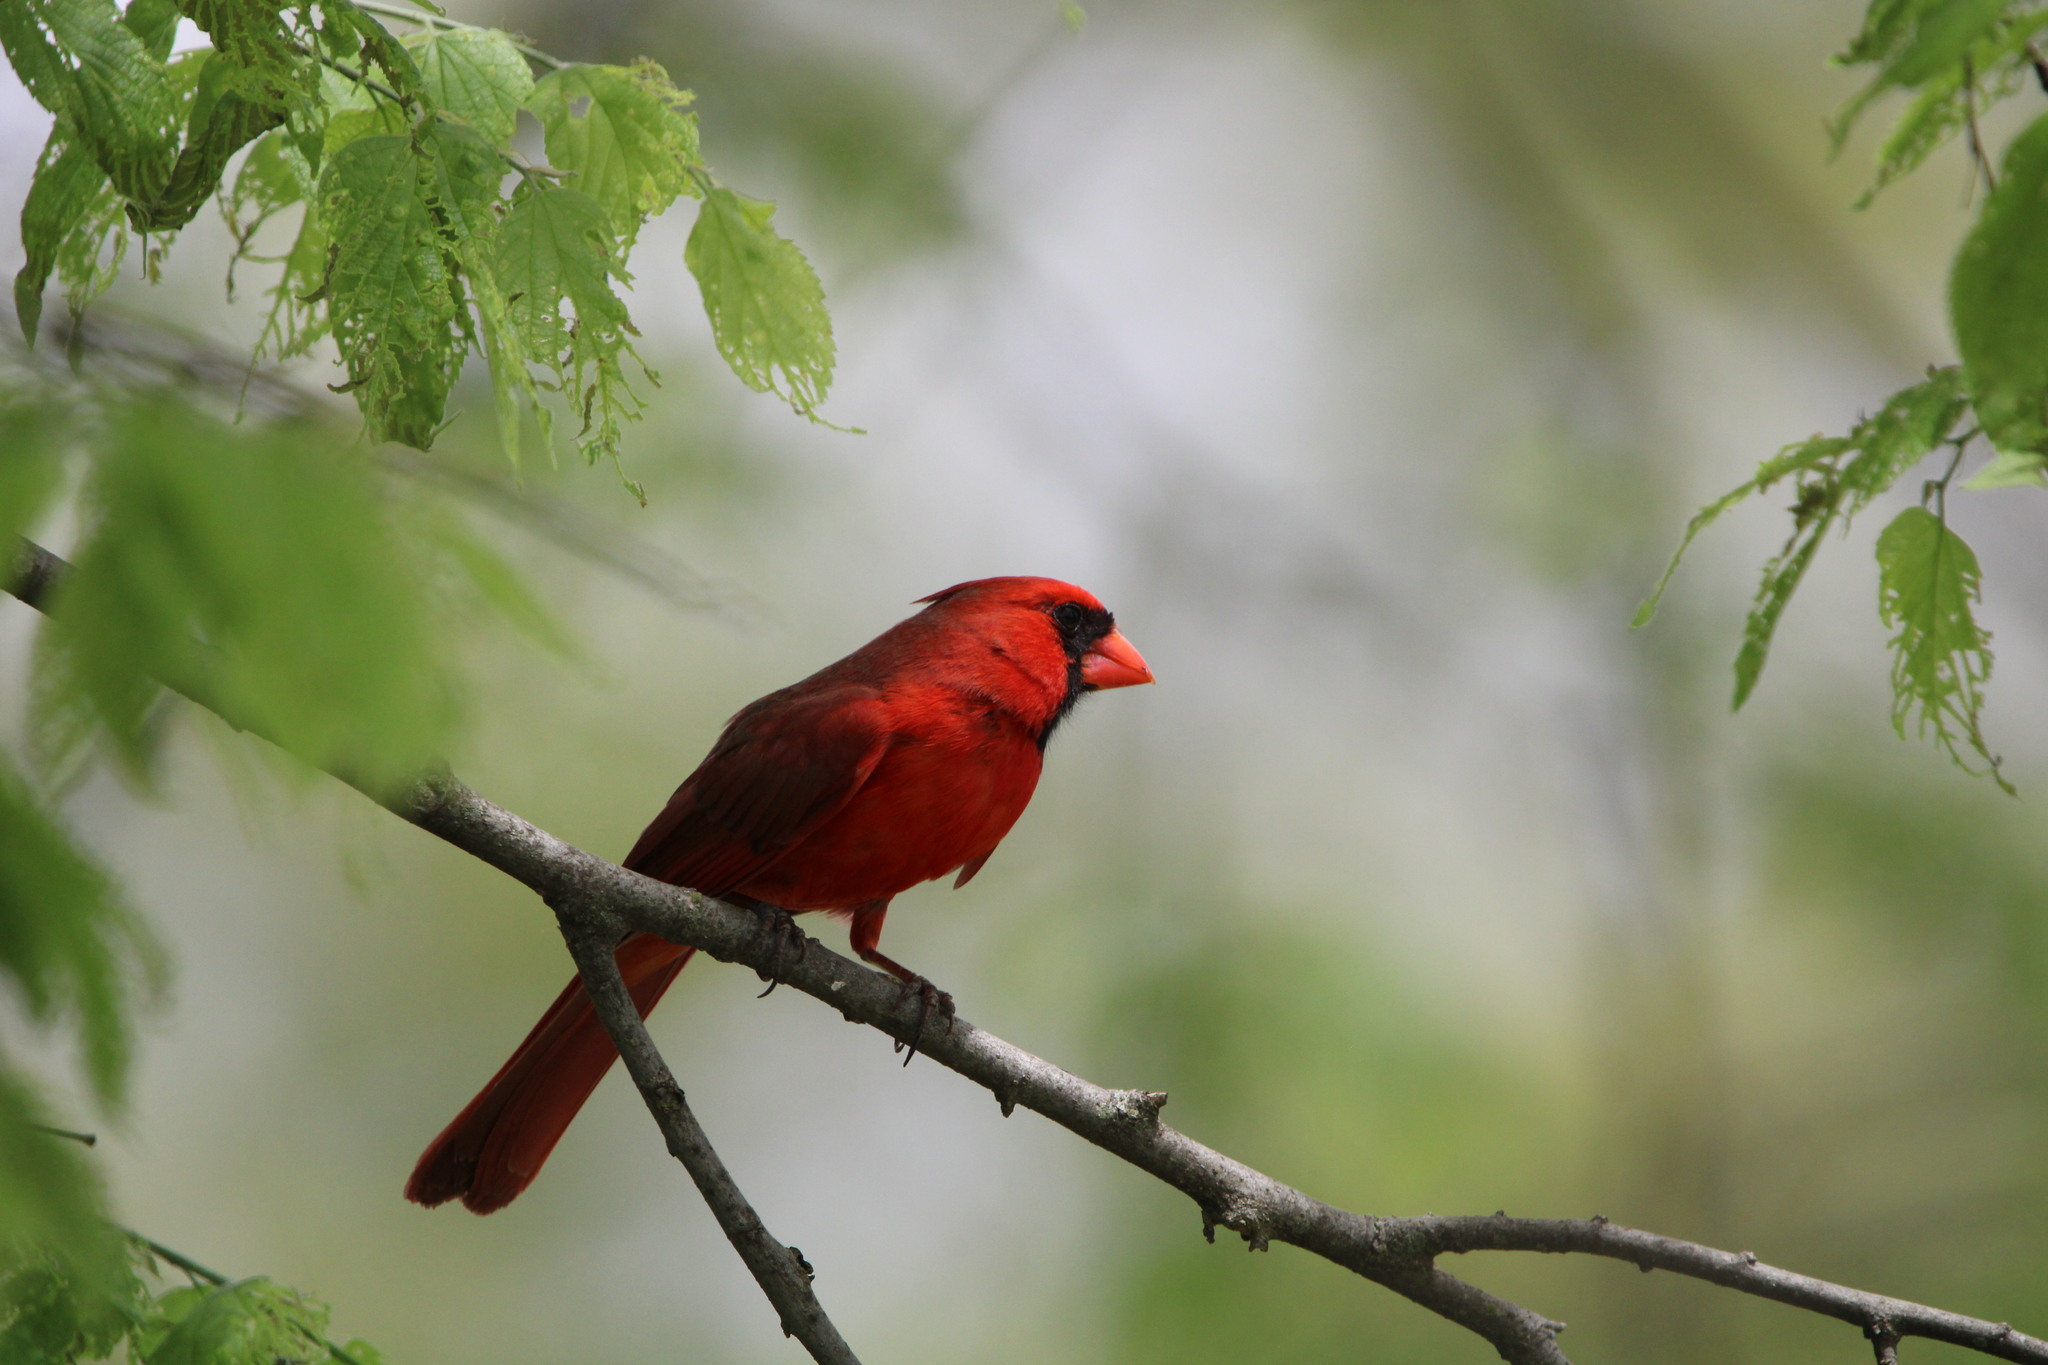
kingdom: Animalia
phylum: Chordata
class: Aves
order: Passeriformes
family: Cardinalidae
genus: Cardinalis
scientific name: Cardinalis cardinalis
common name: Northern cardinal
